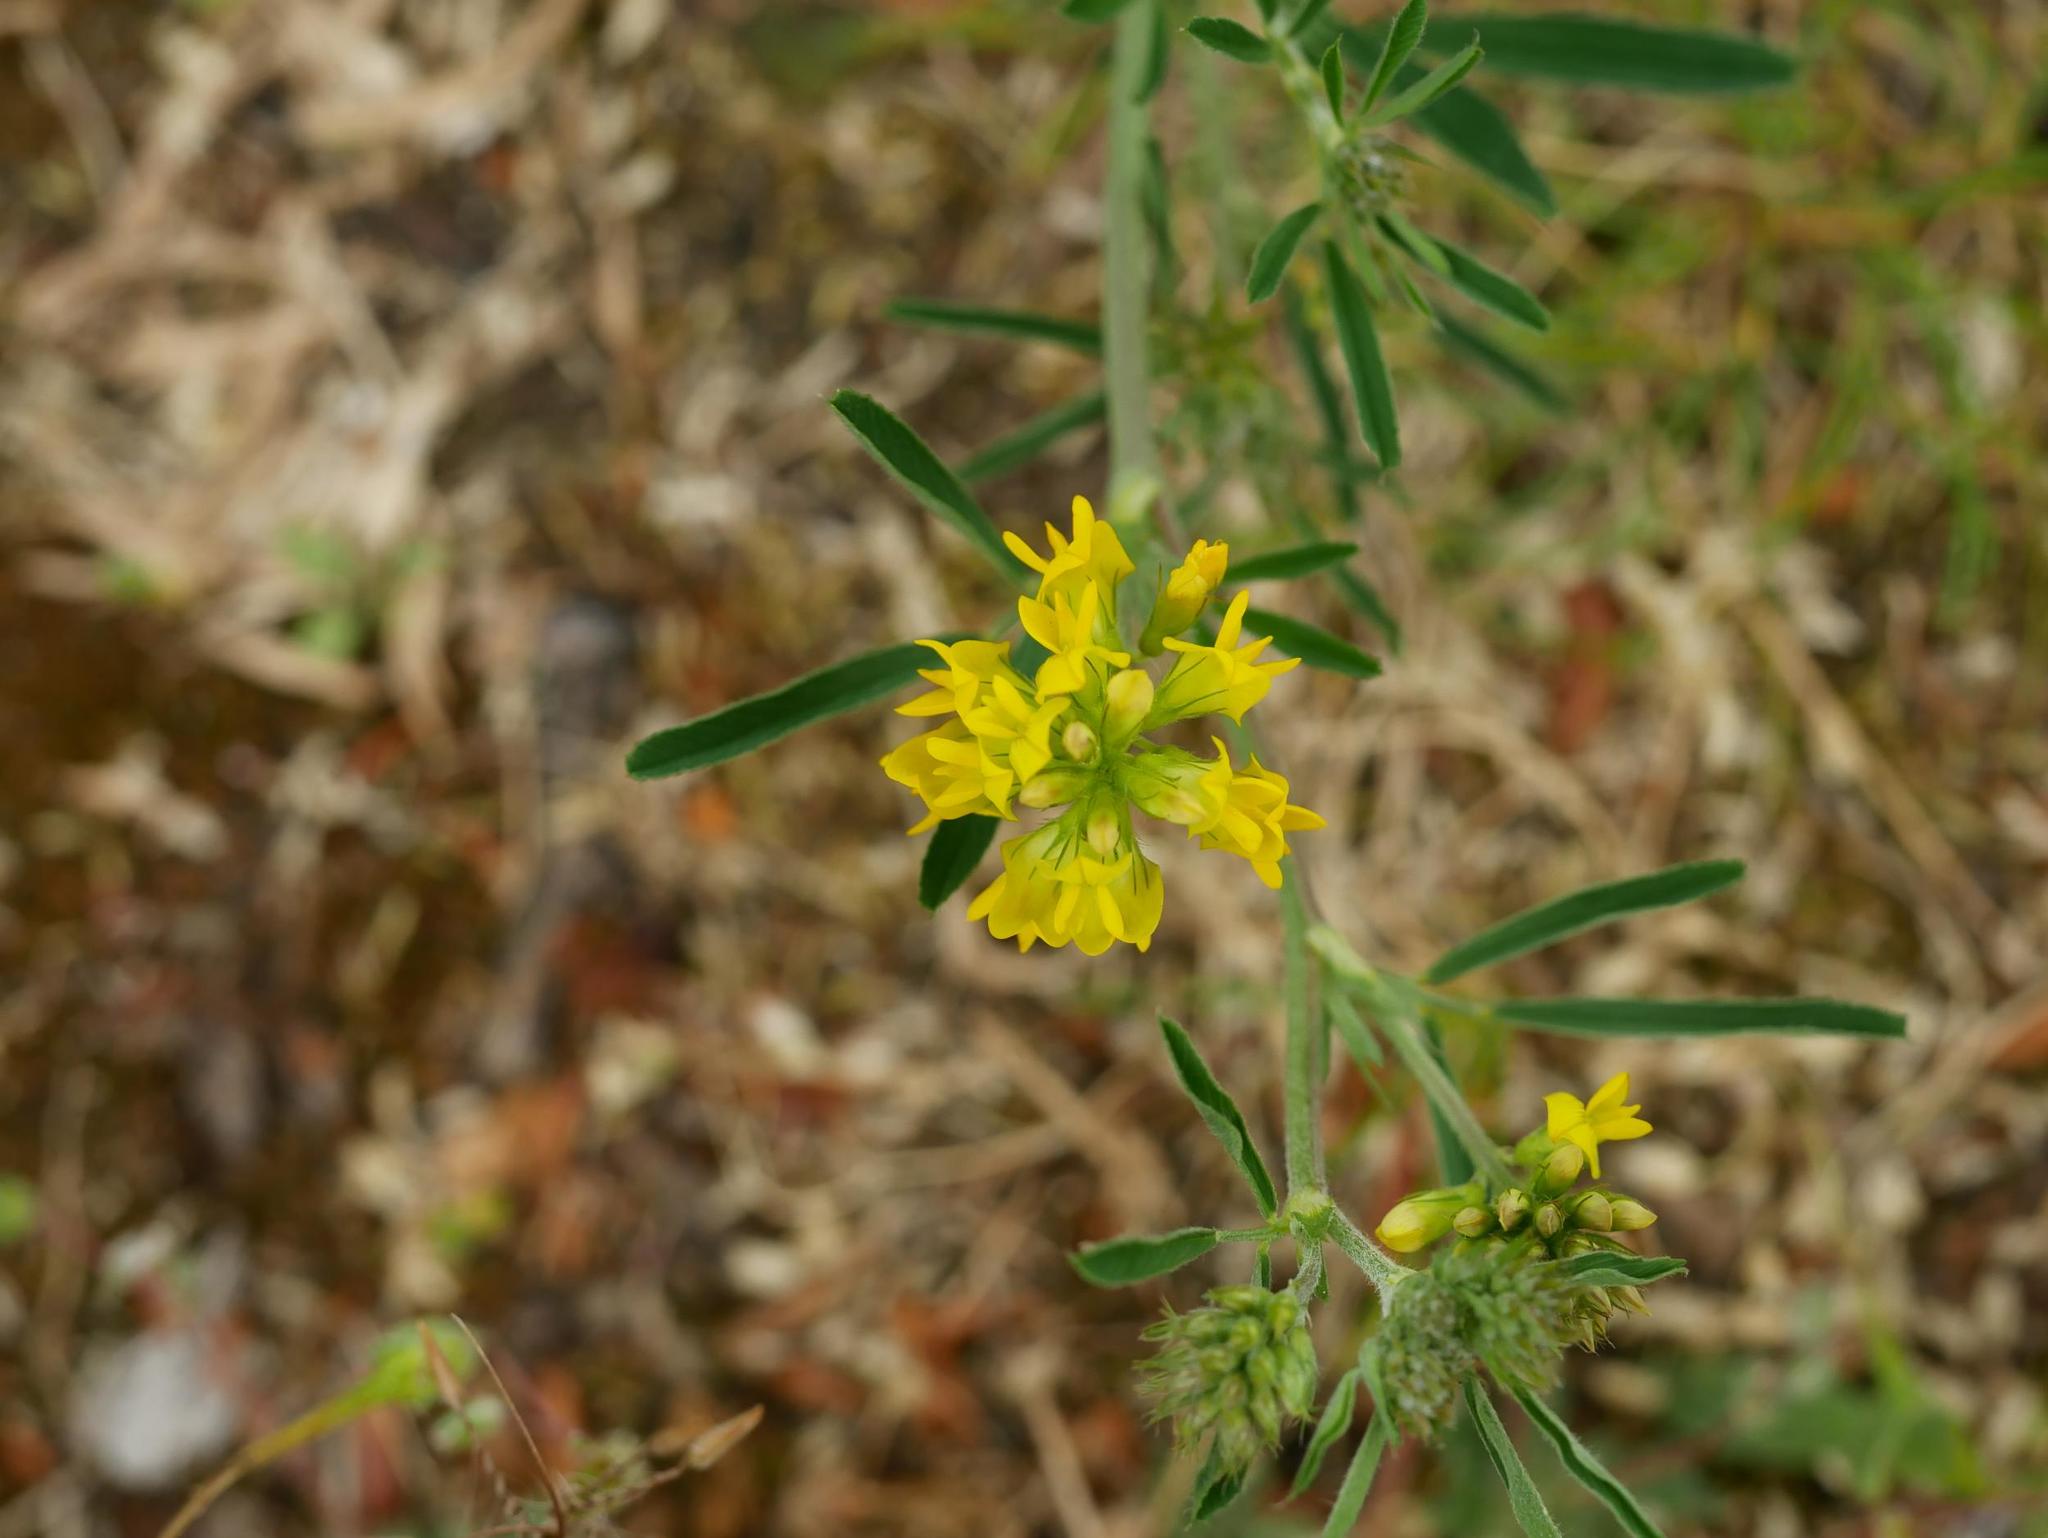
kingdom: Plantae
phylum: Tracheophyta
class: Magnoliopsida
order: Fabales
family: Fabaceae
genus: Medicago
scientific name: Medicago falcata
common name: Sickle medick
